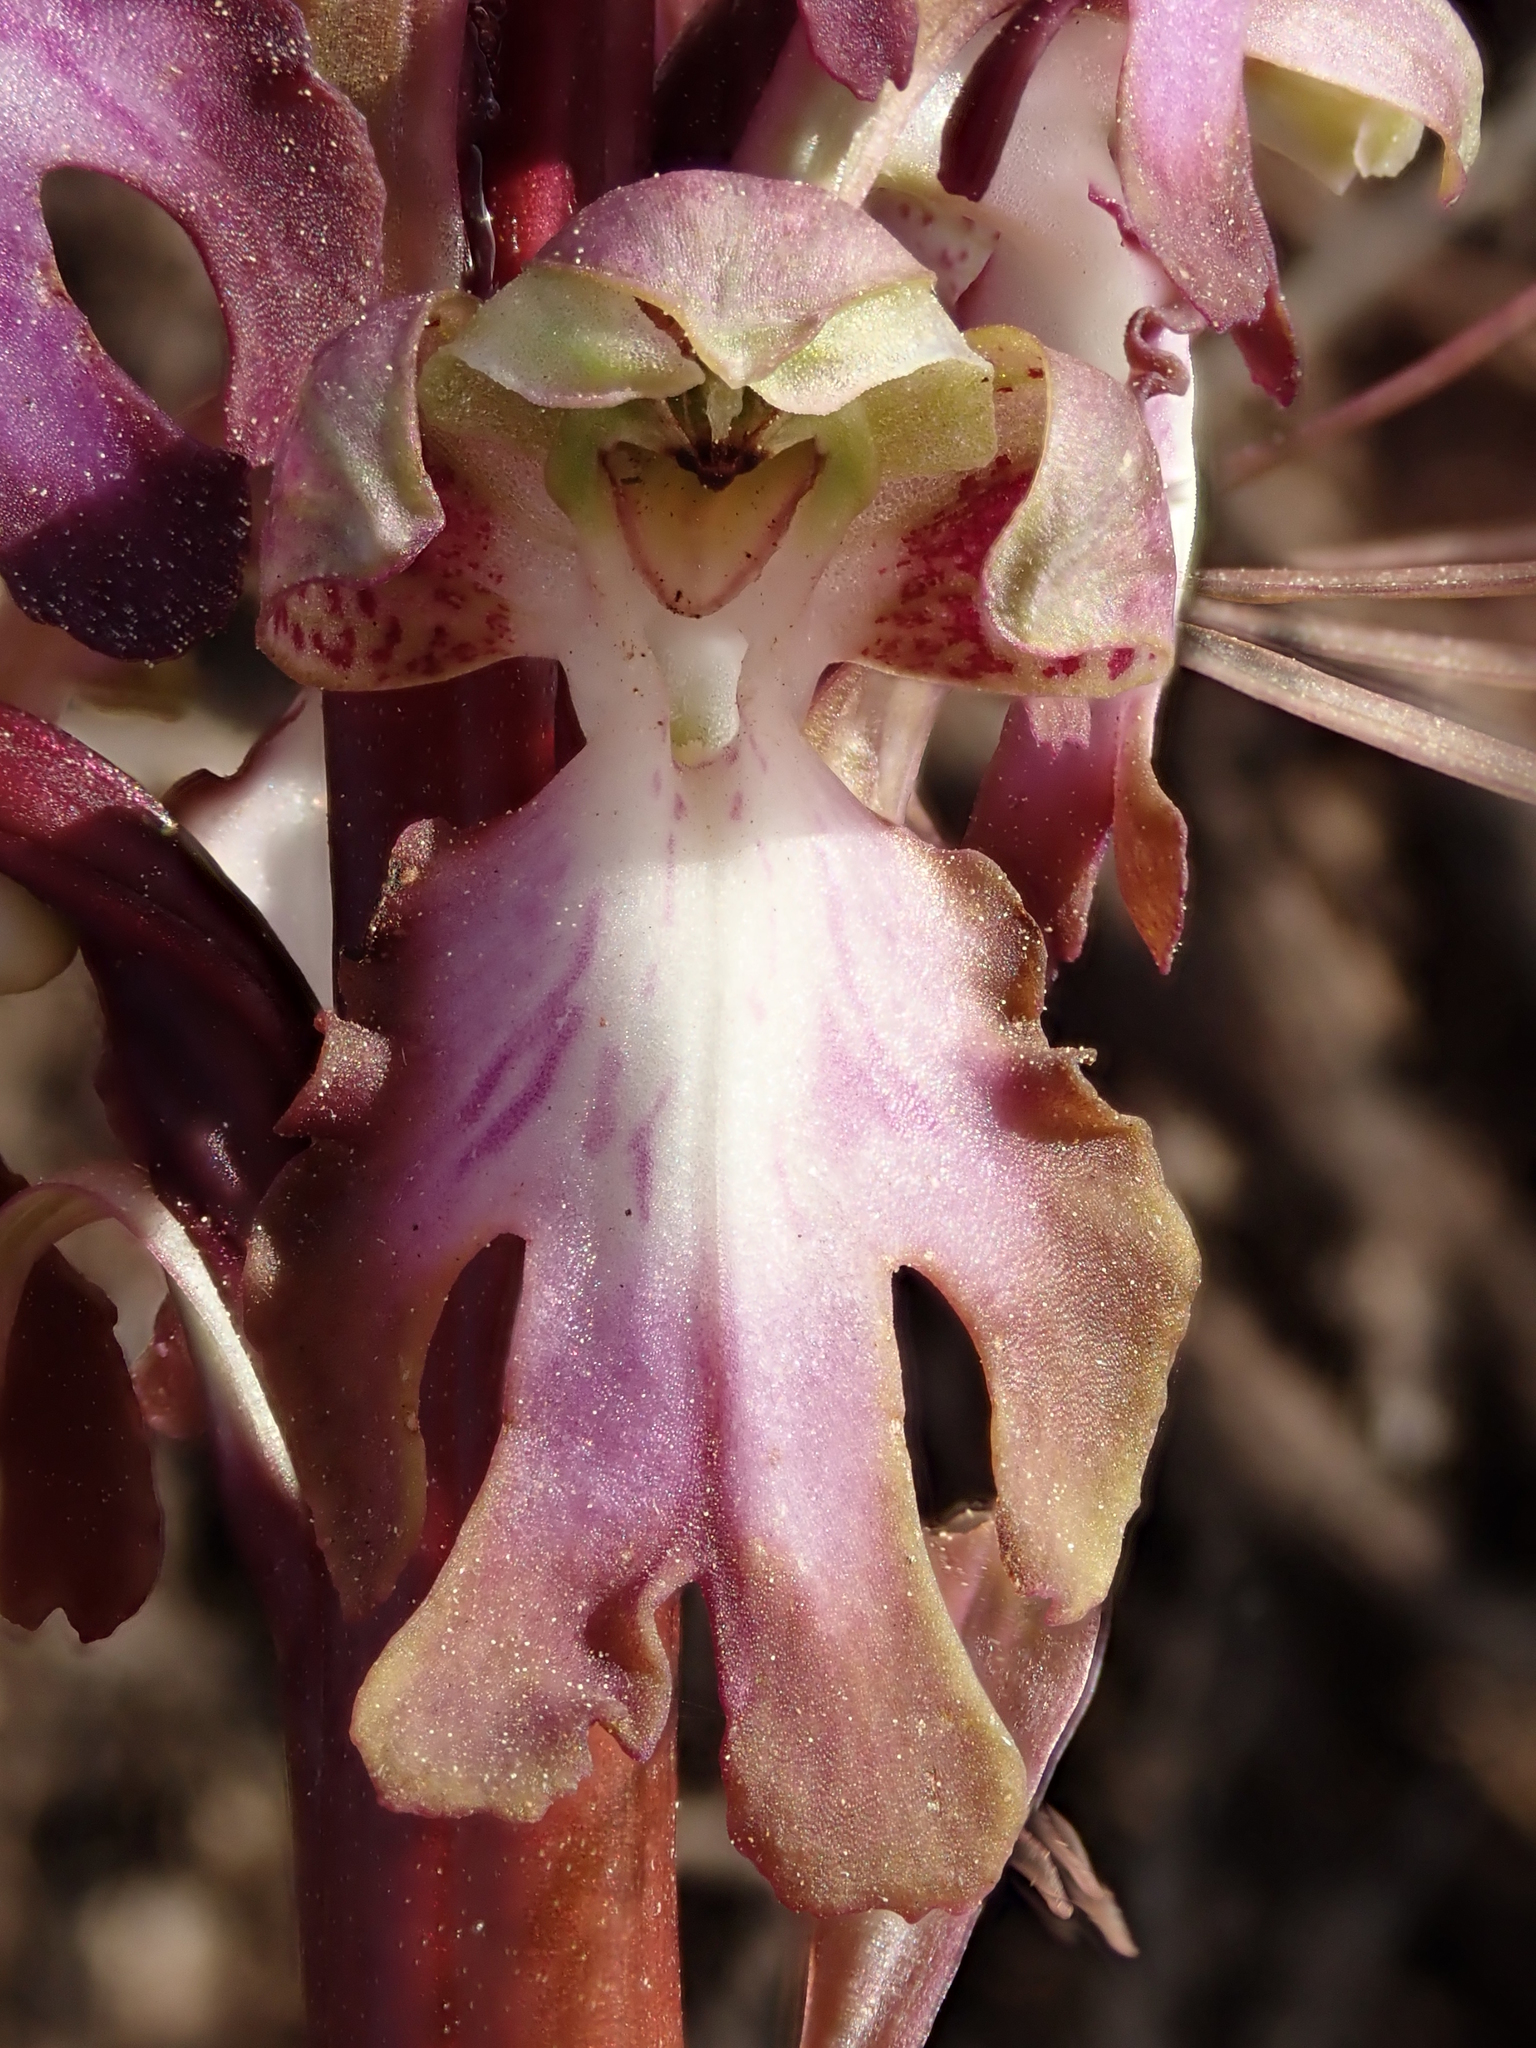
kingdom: Plantae
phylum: Tracheophyta
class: Liliopsida
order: Asparagales
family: Orchidaceae
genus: Himantoglossum
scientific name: Himantoglossum robertianum
